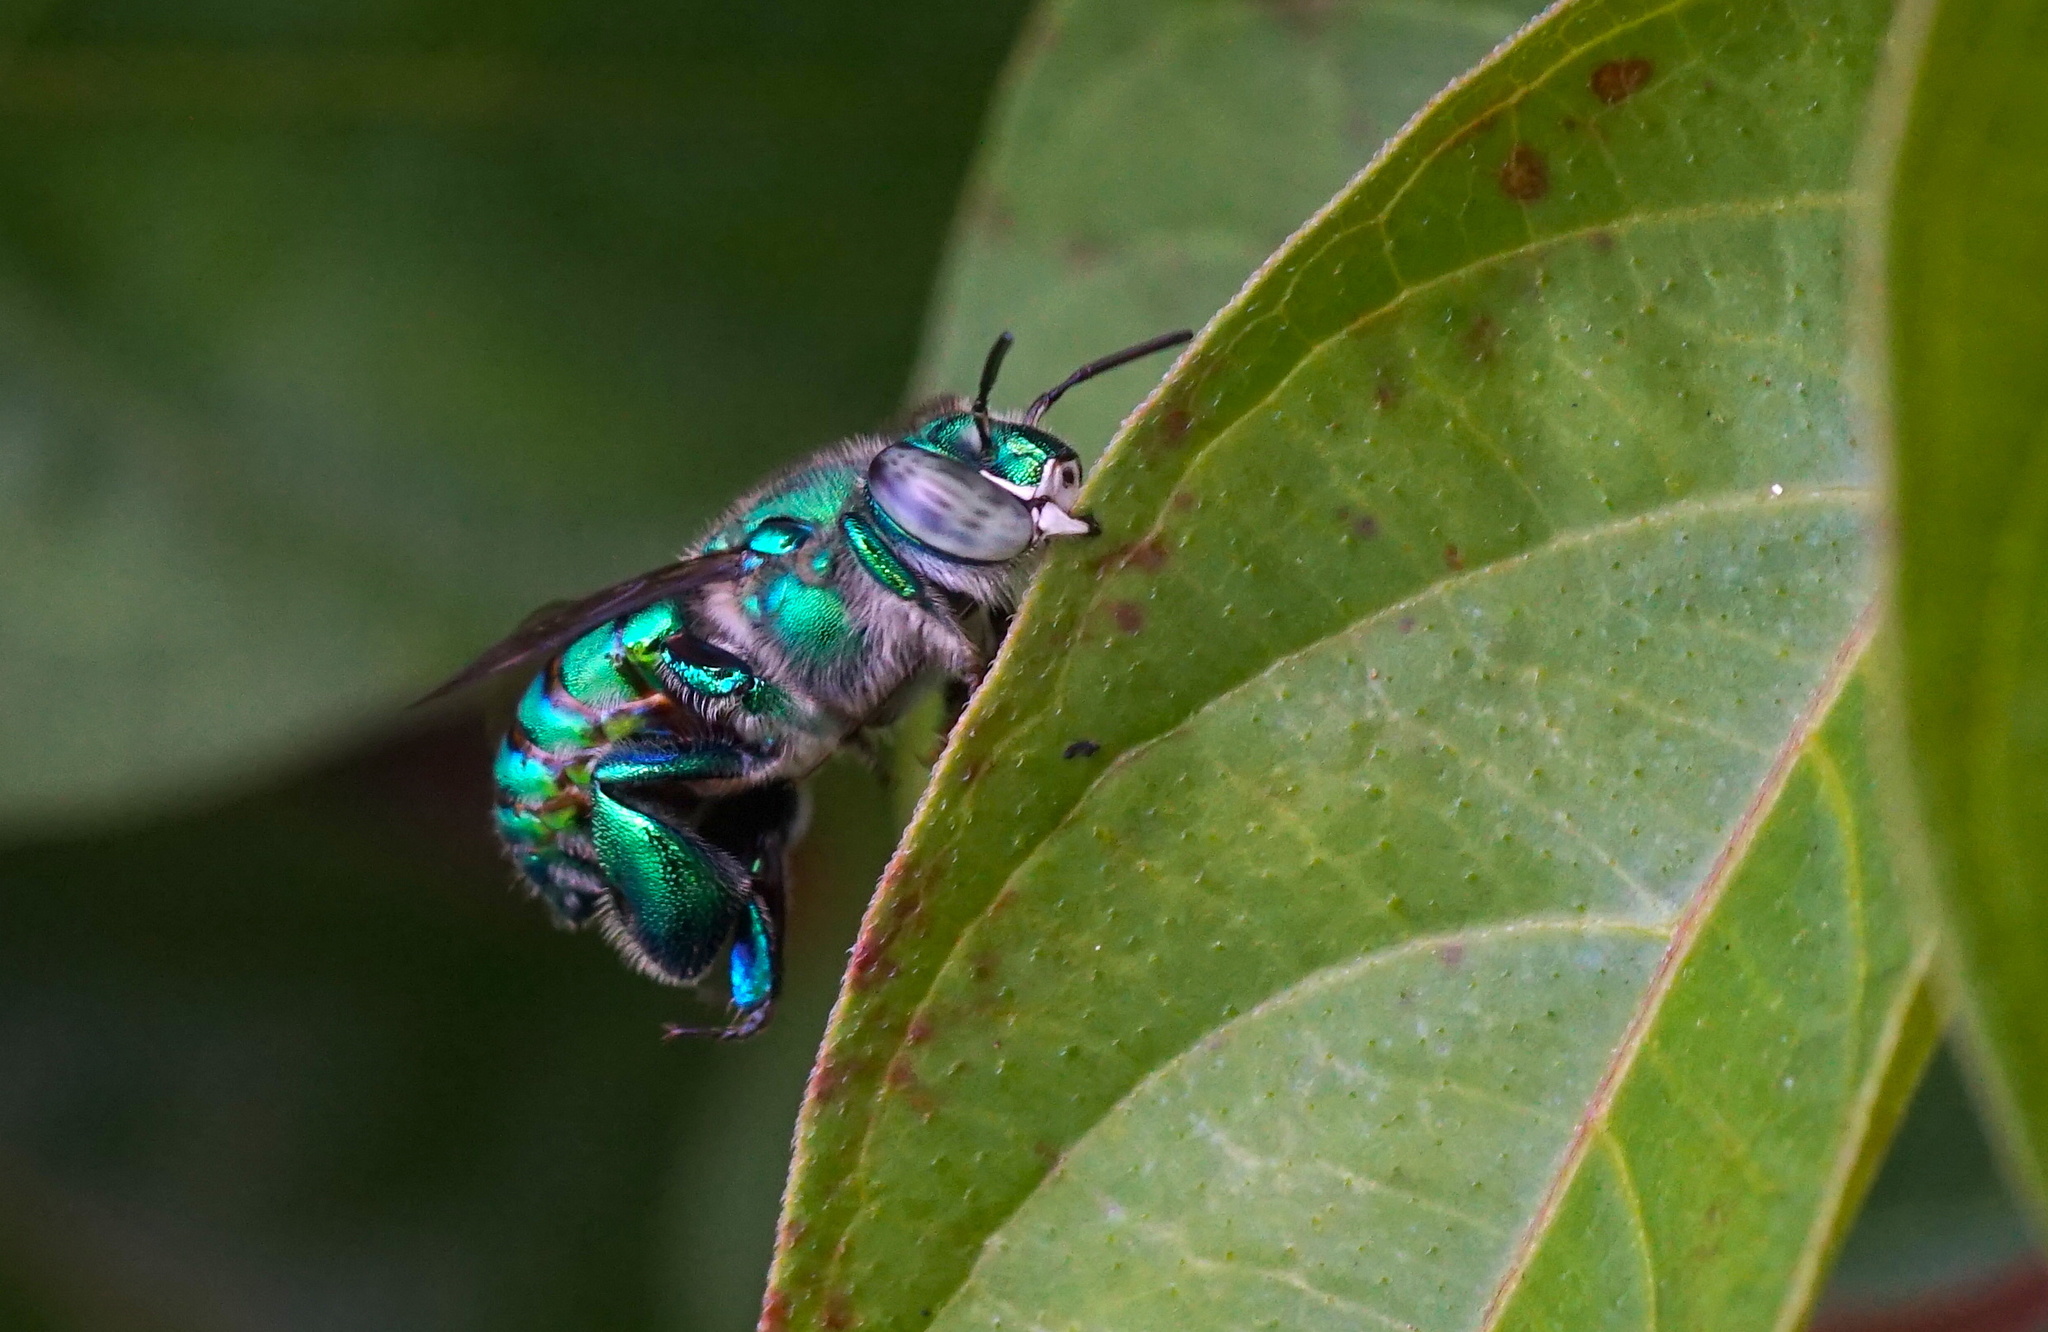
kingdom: Animalia
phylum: Arthropoda
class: Insecta
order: Hymenoptera
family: Apidae
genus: Euglossa
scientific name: Euglossa dilemma
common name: Green orchid bee
